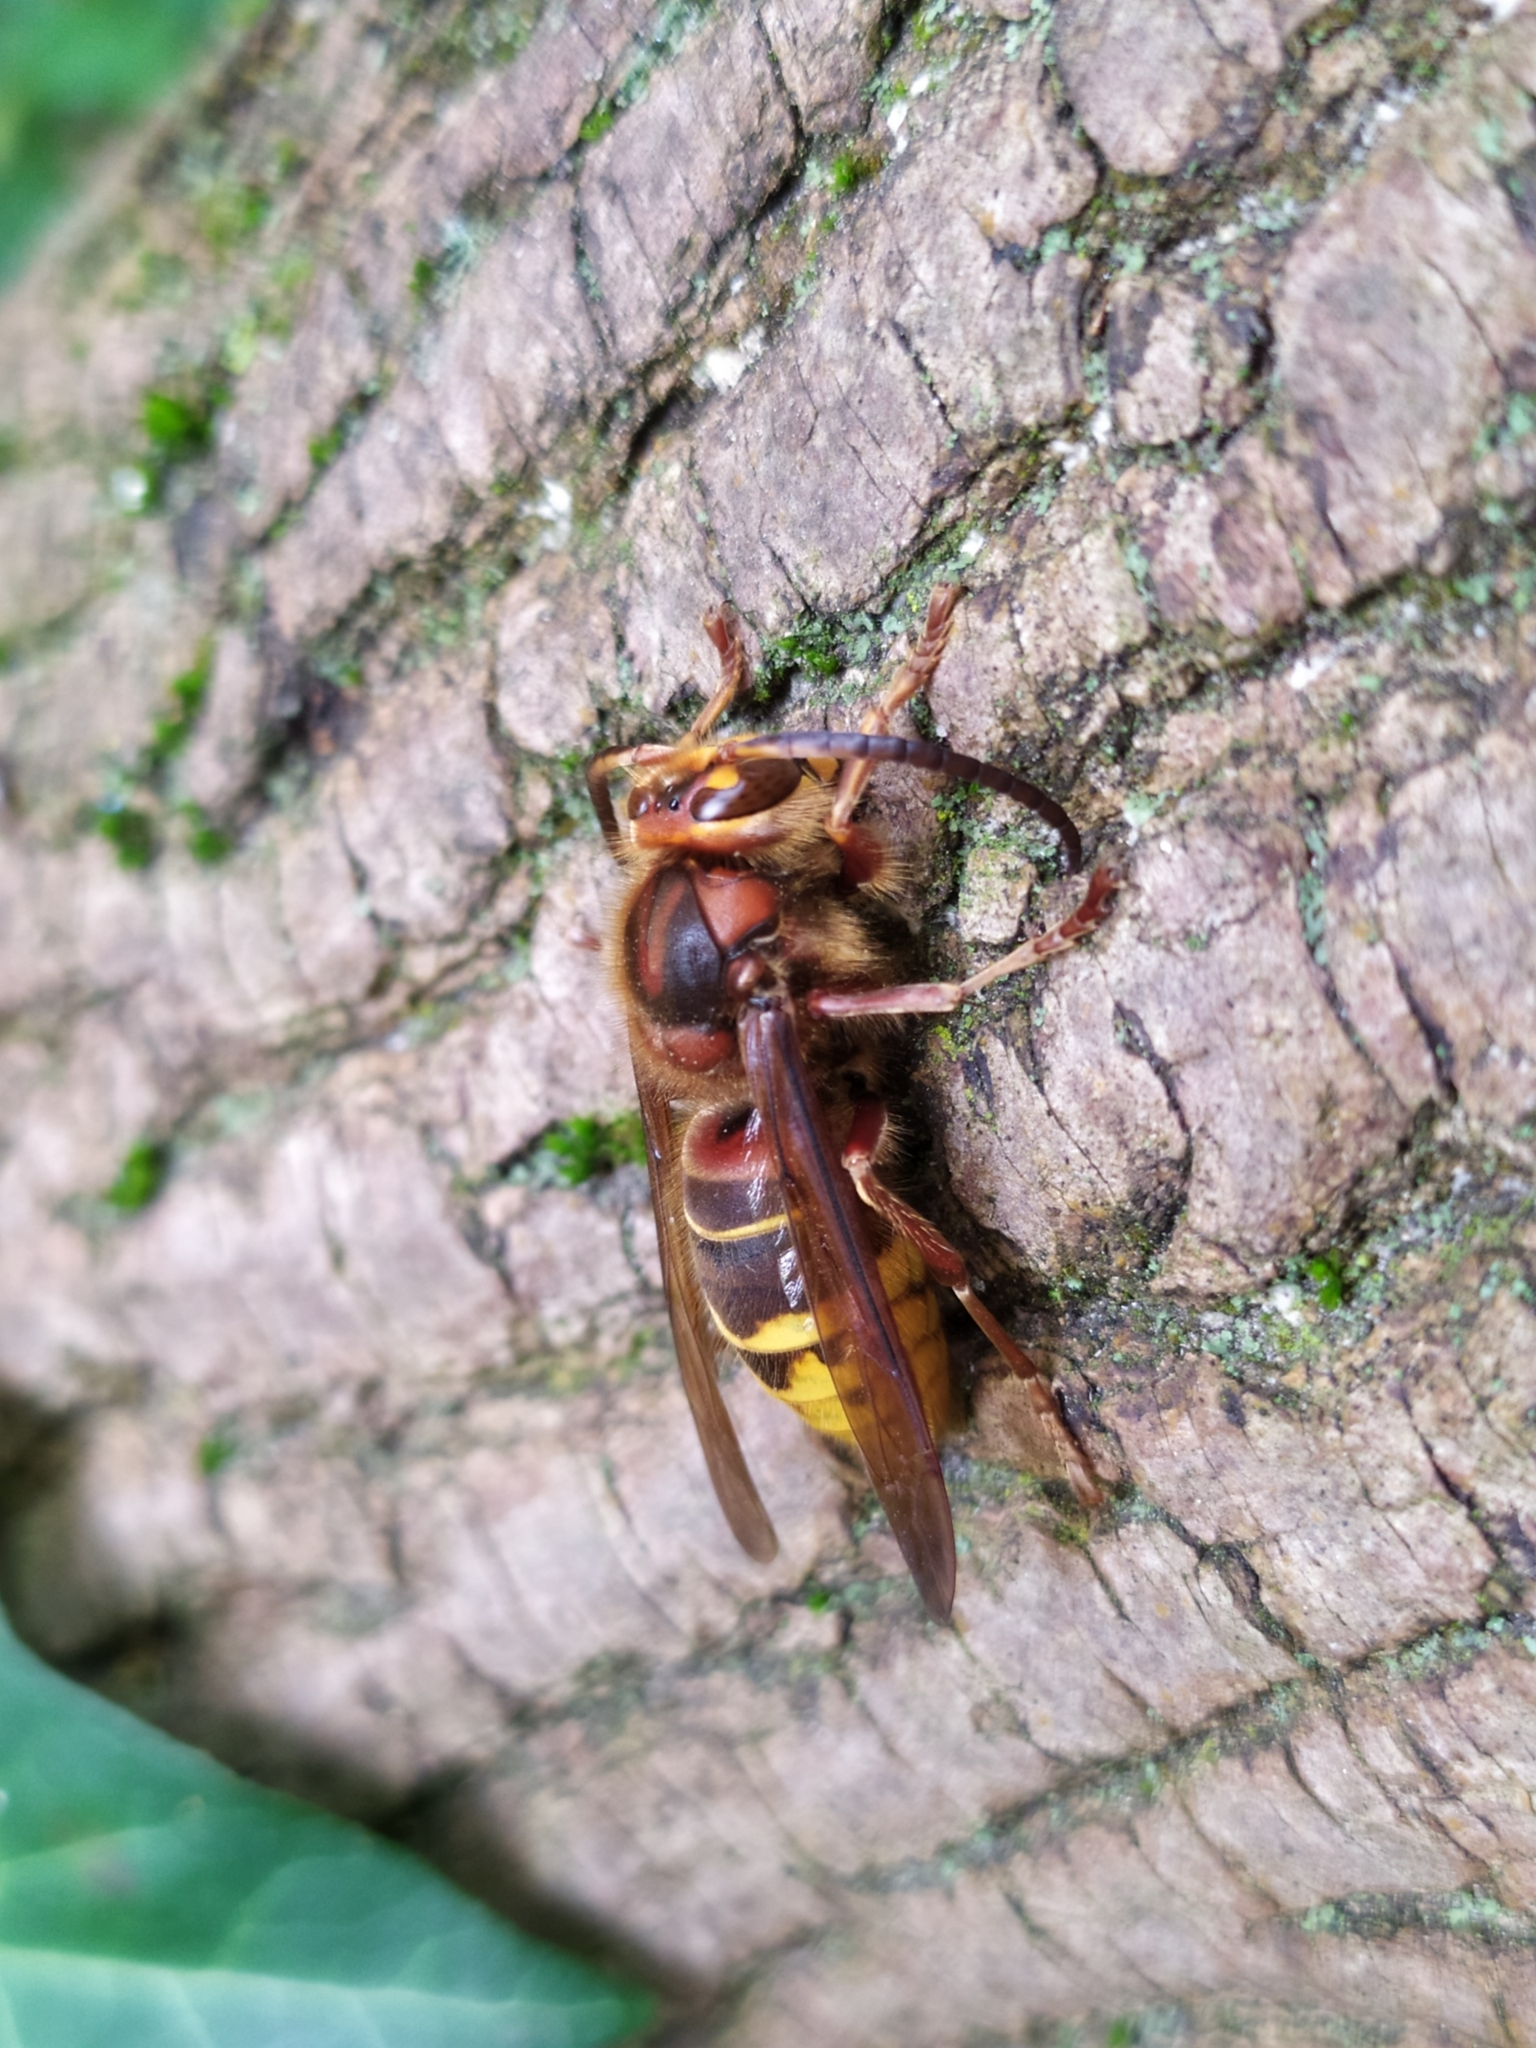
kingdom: Animalia
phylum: Arthropoda
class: Insecta
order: Hymenoptera
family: Vespidae
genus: Vespa
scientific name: Vespa crabro
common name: Hornet
